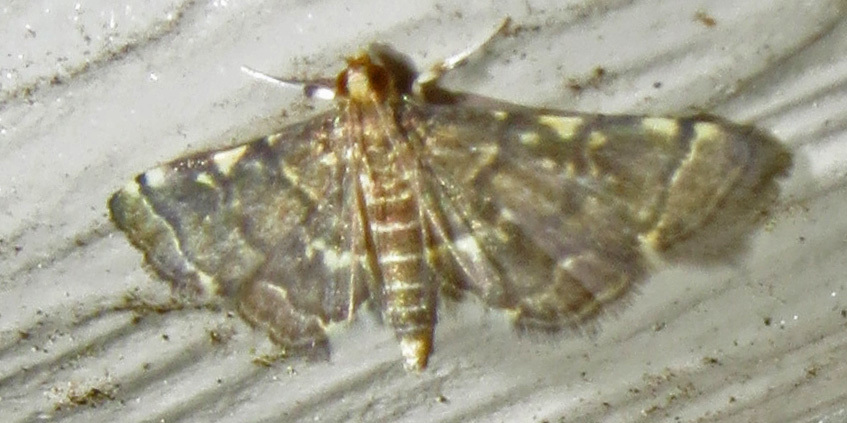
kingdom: Animalia
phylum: Arthropoda
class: Insecta
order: Lepidoptera
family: Crambidae
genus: Anageshna
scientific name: Anageshna primordialis
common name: Yellow-spotted webworm moth
